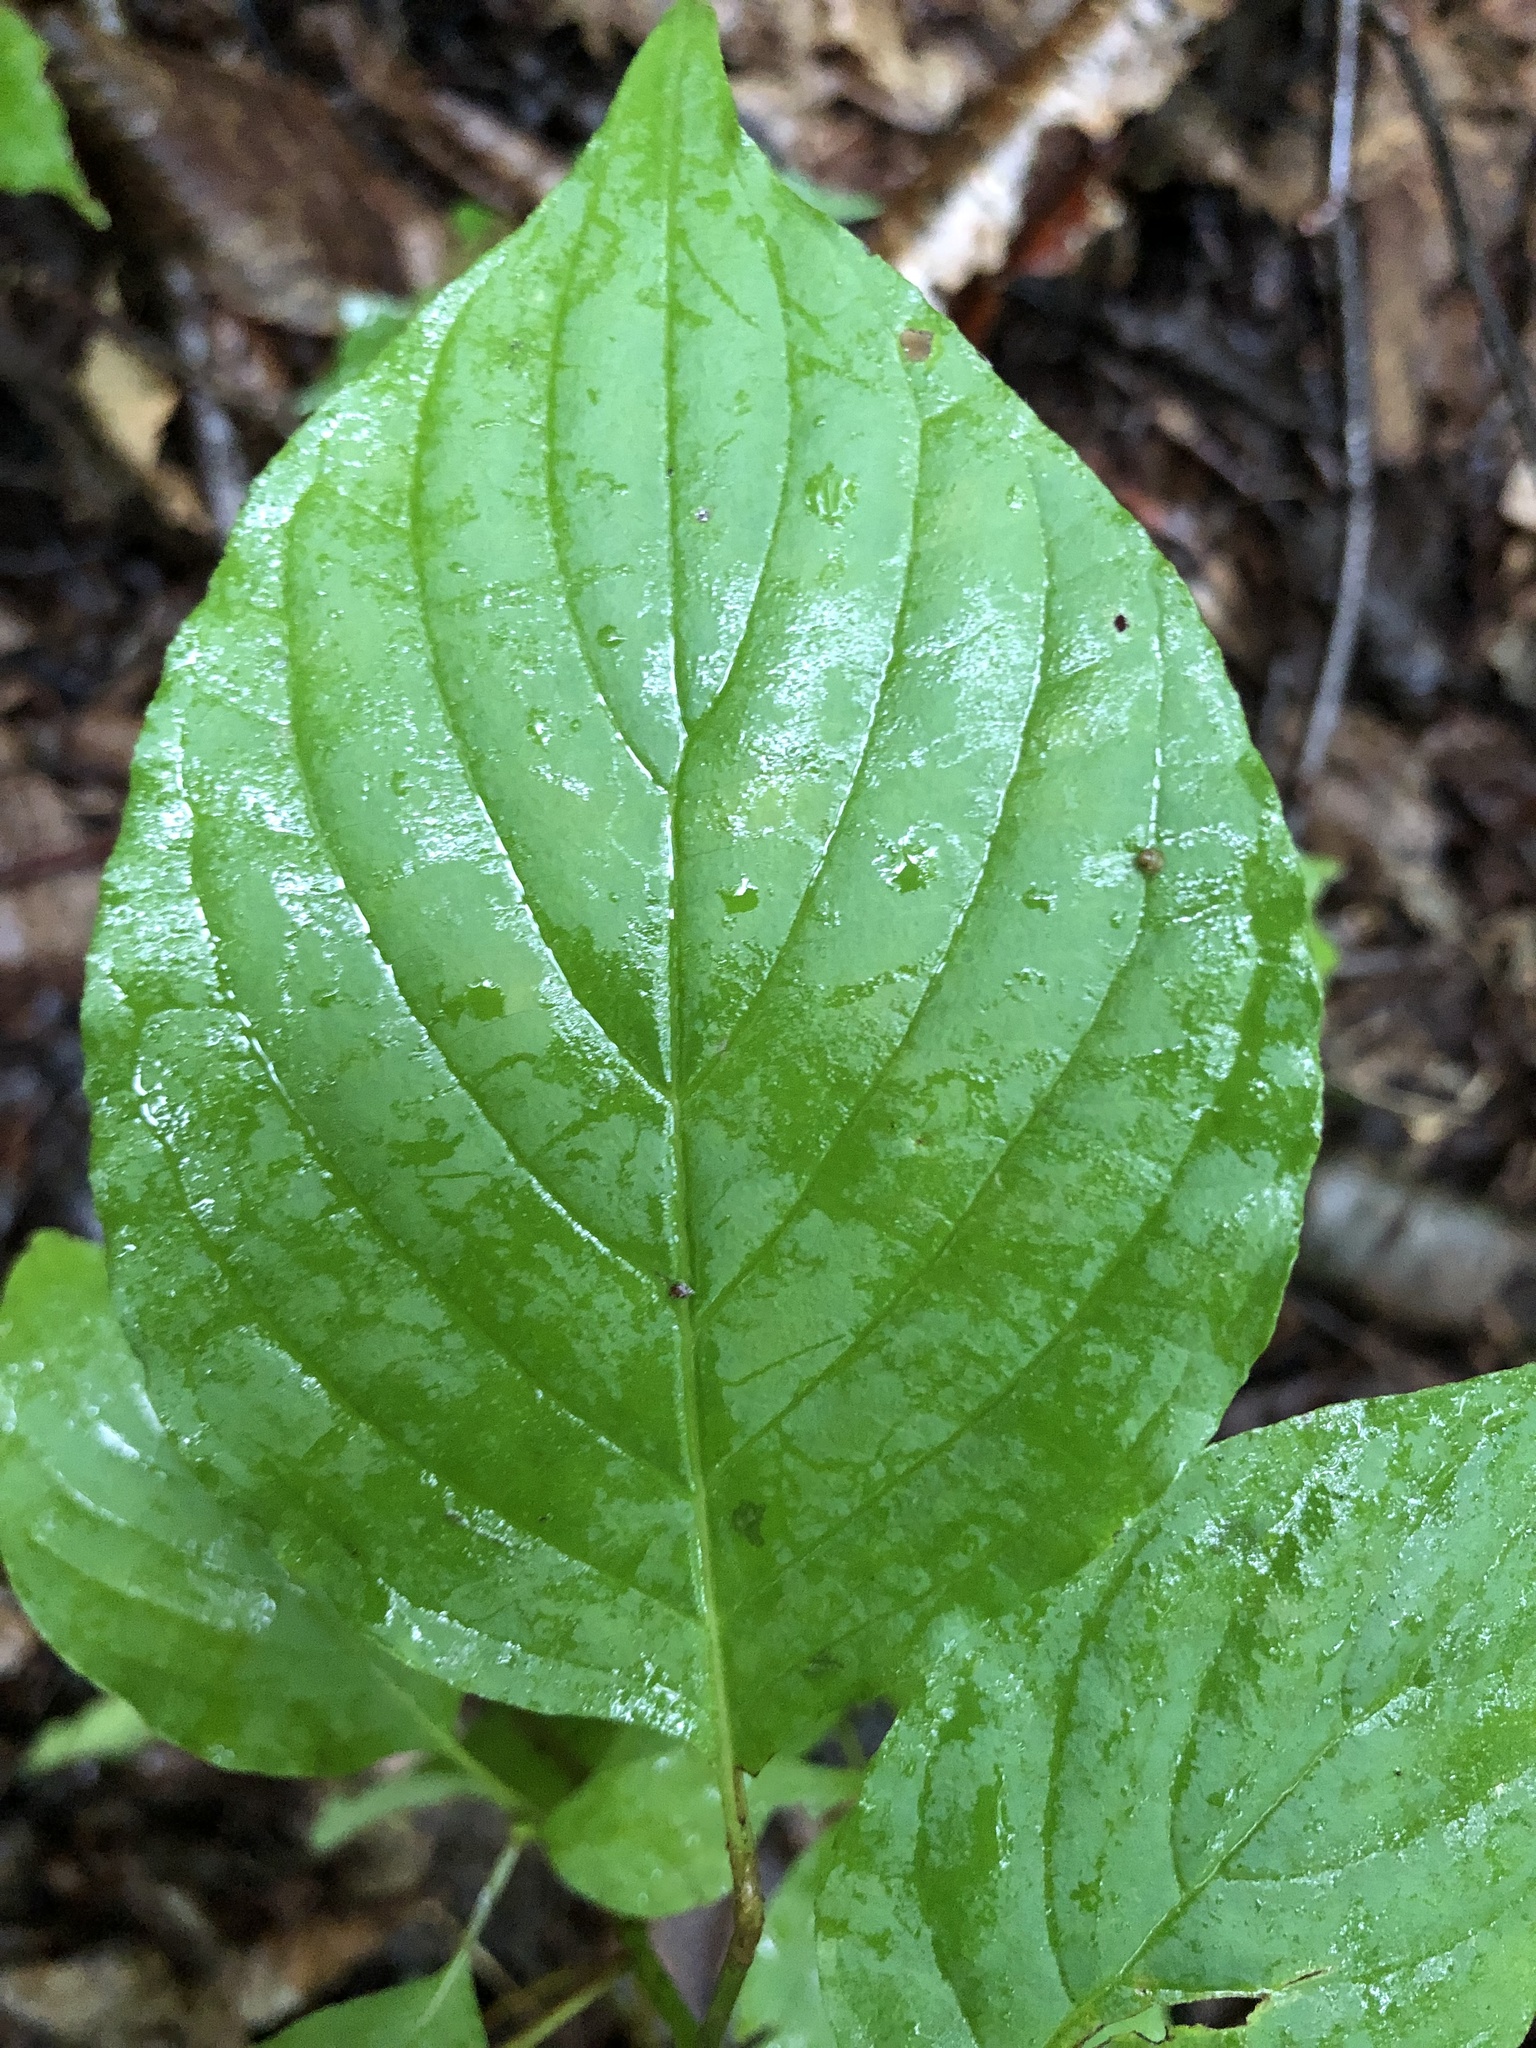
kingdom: Plantae
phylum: Tracheophyta
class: Magnoliopsida
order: Cornales
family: Cornaceae
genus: Cornus
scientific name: Cornus alternifolia
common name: Pagoda dogwood
